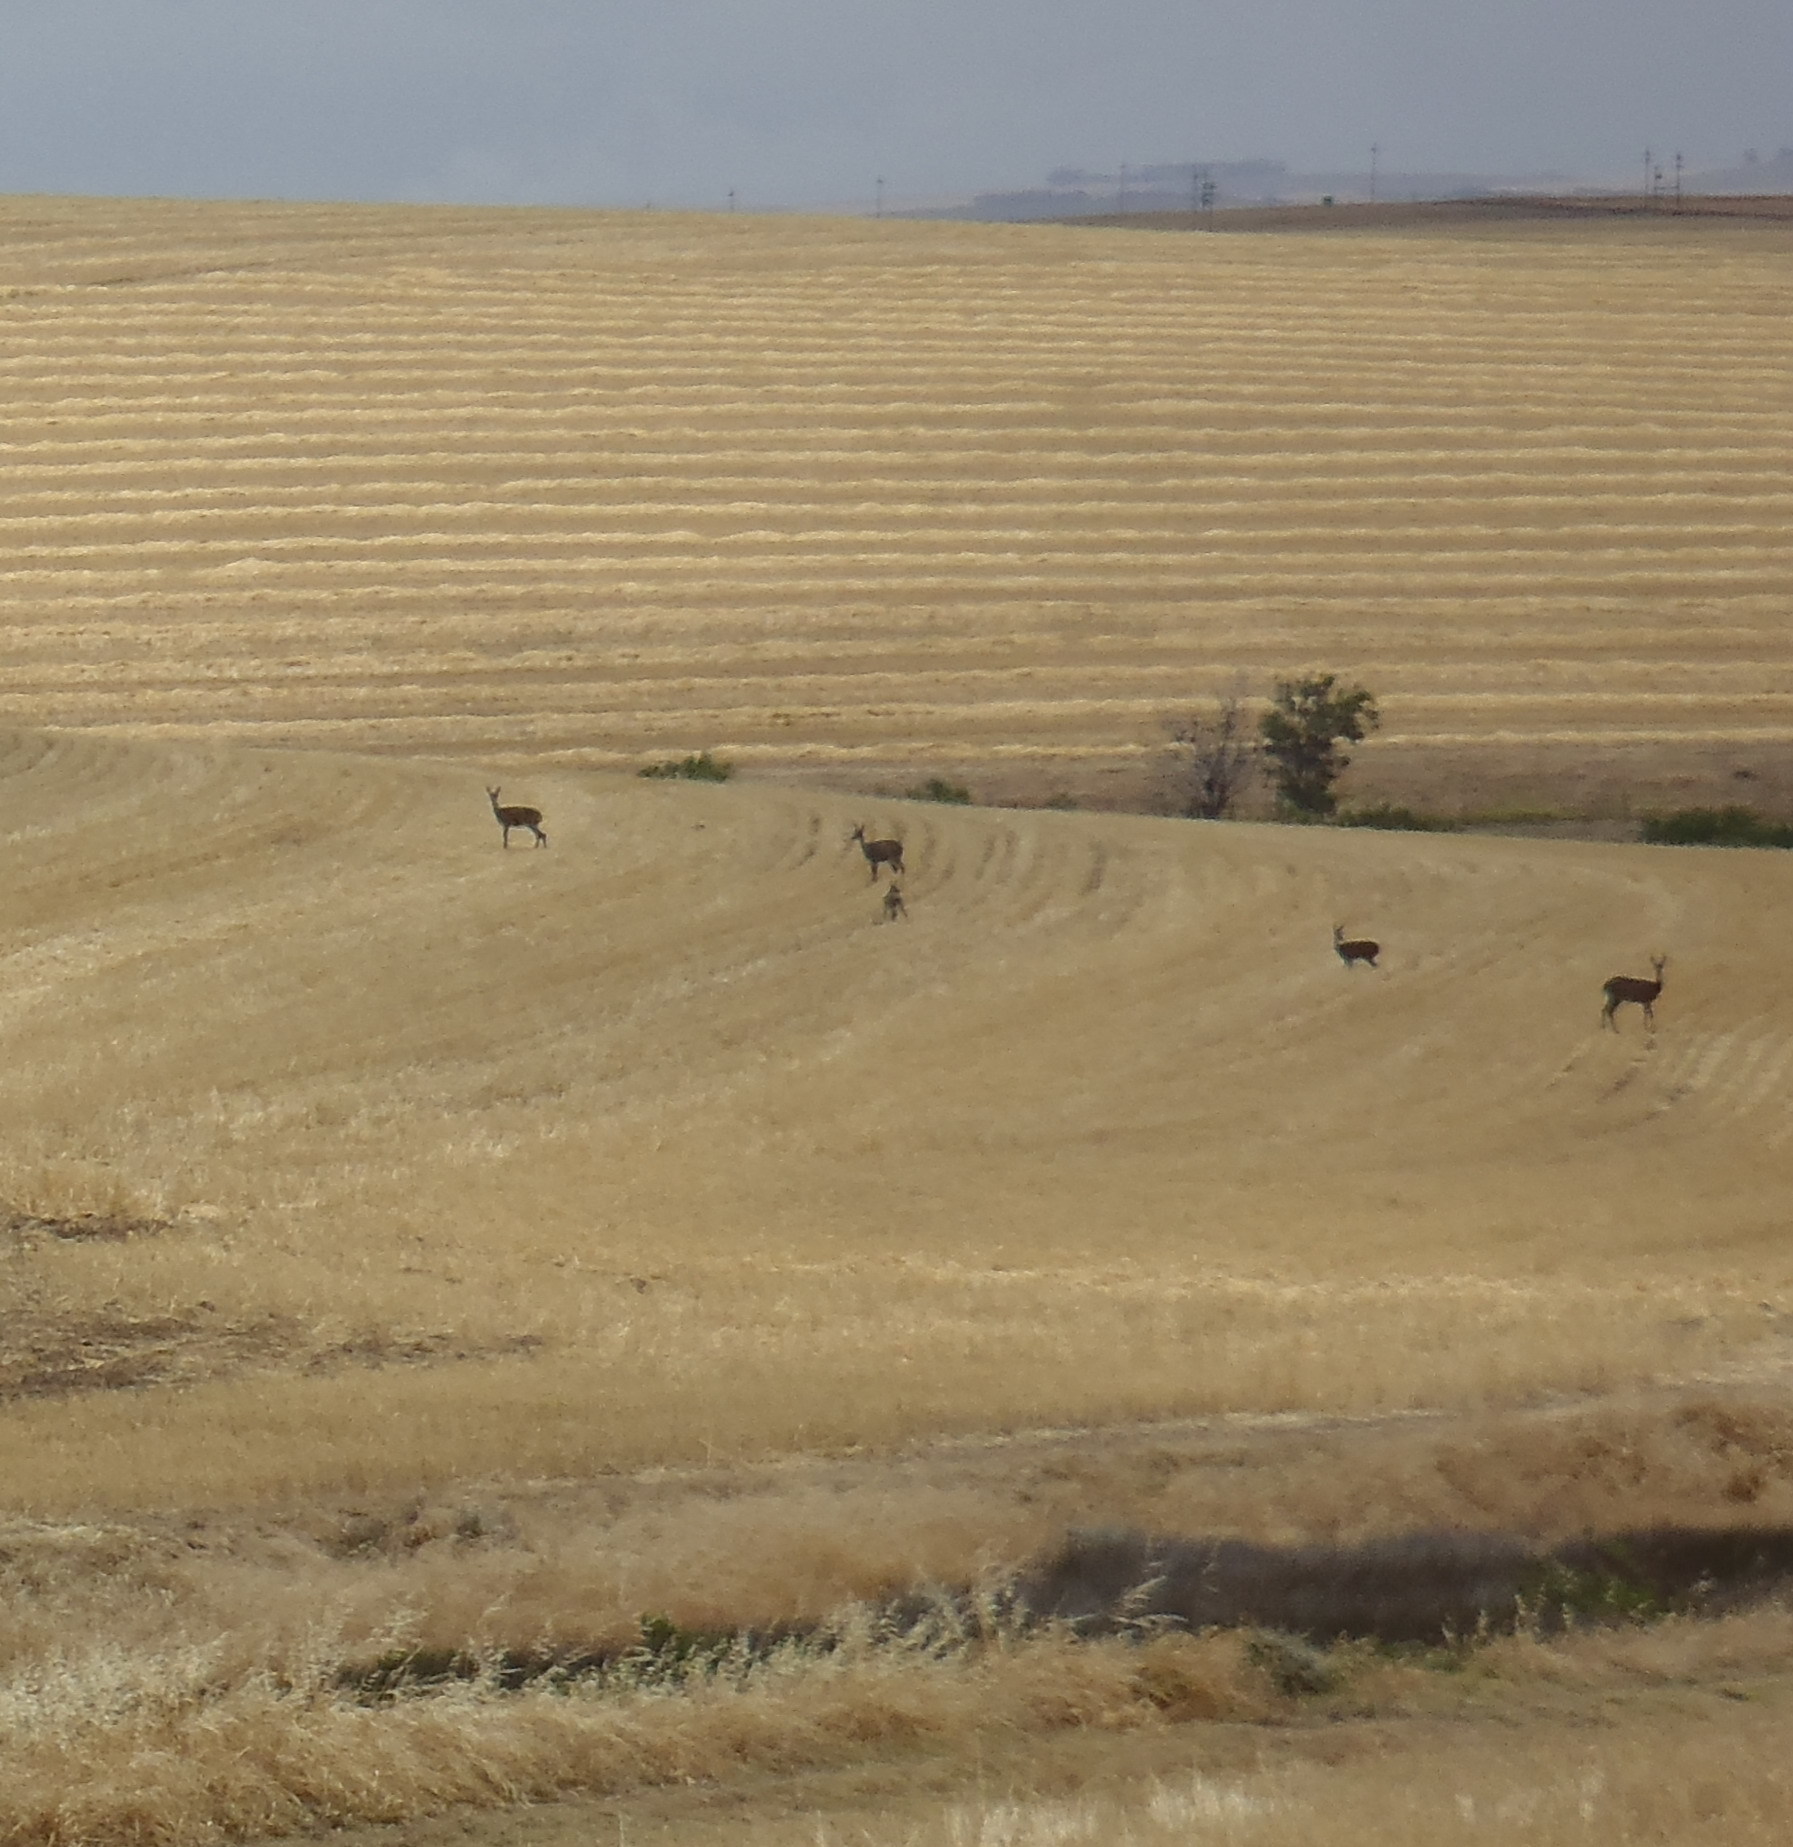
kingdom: Animalia
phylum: Chordata
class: Mammalia
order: Artiodactyla
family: Bovidae
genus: Pelea
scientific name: Pelea capreolus
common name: Common rhebok
